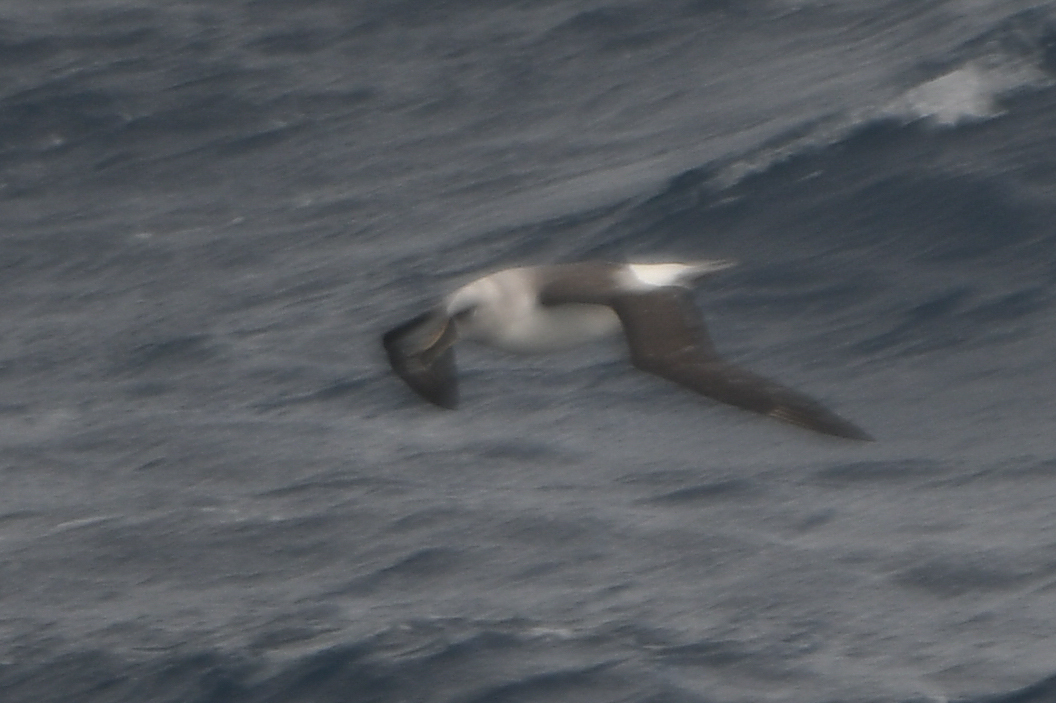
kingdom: Animalia
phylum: Chordata
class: Aves
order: Procellariiformes
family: Diomedeidae
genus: Thalassarche
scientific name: Thalassarche chrysostoma
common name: Grey-headed albatross
